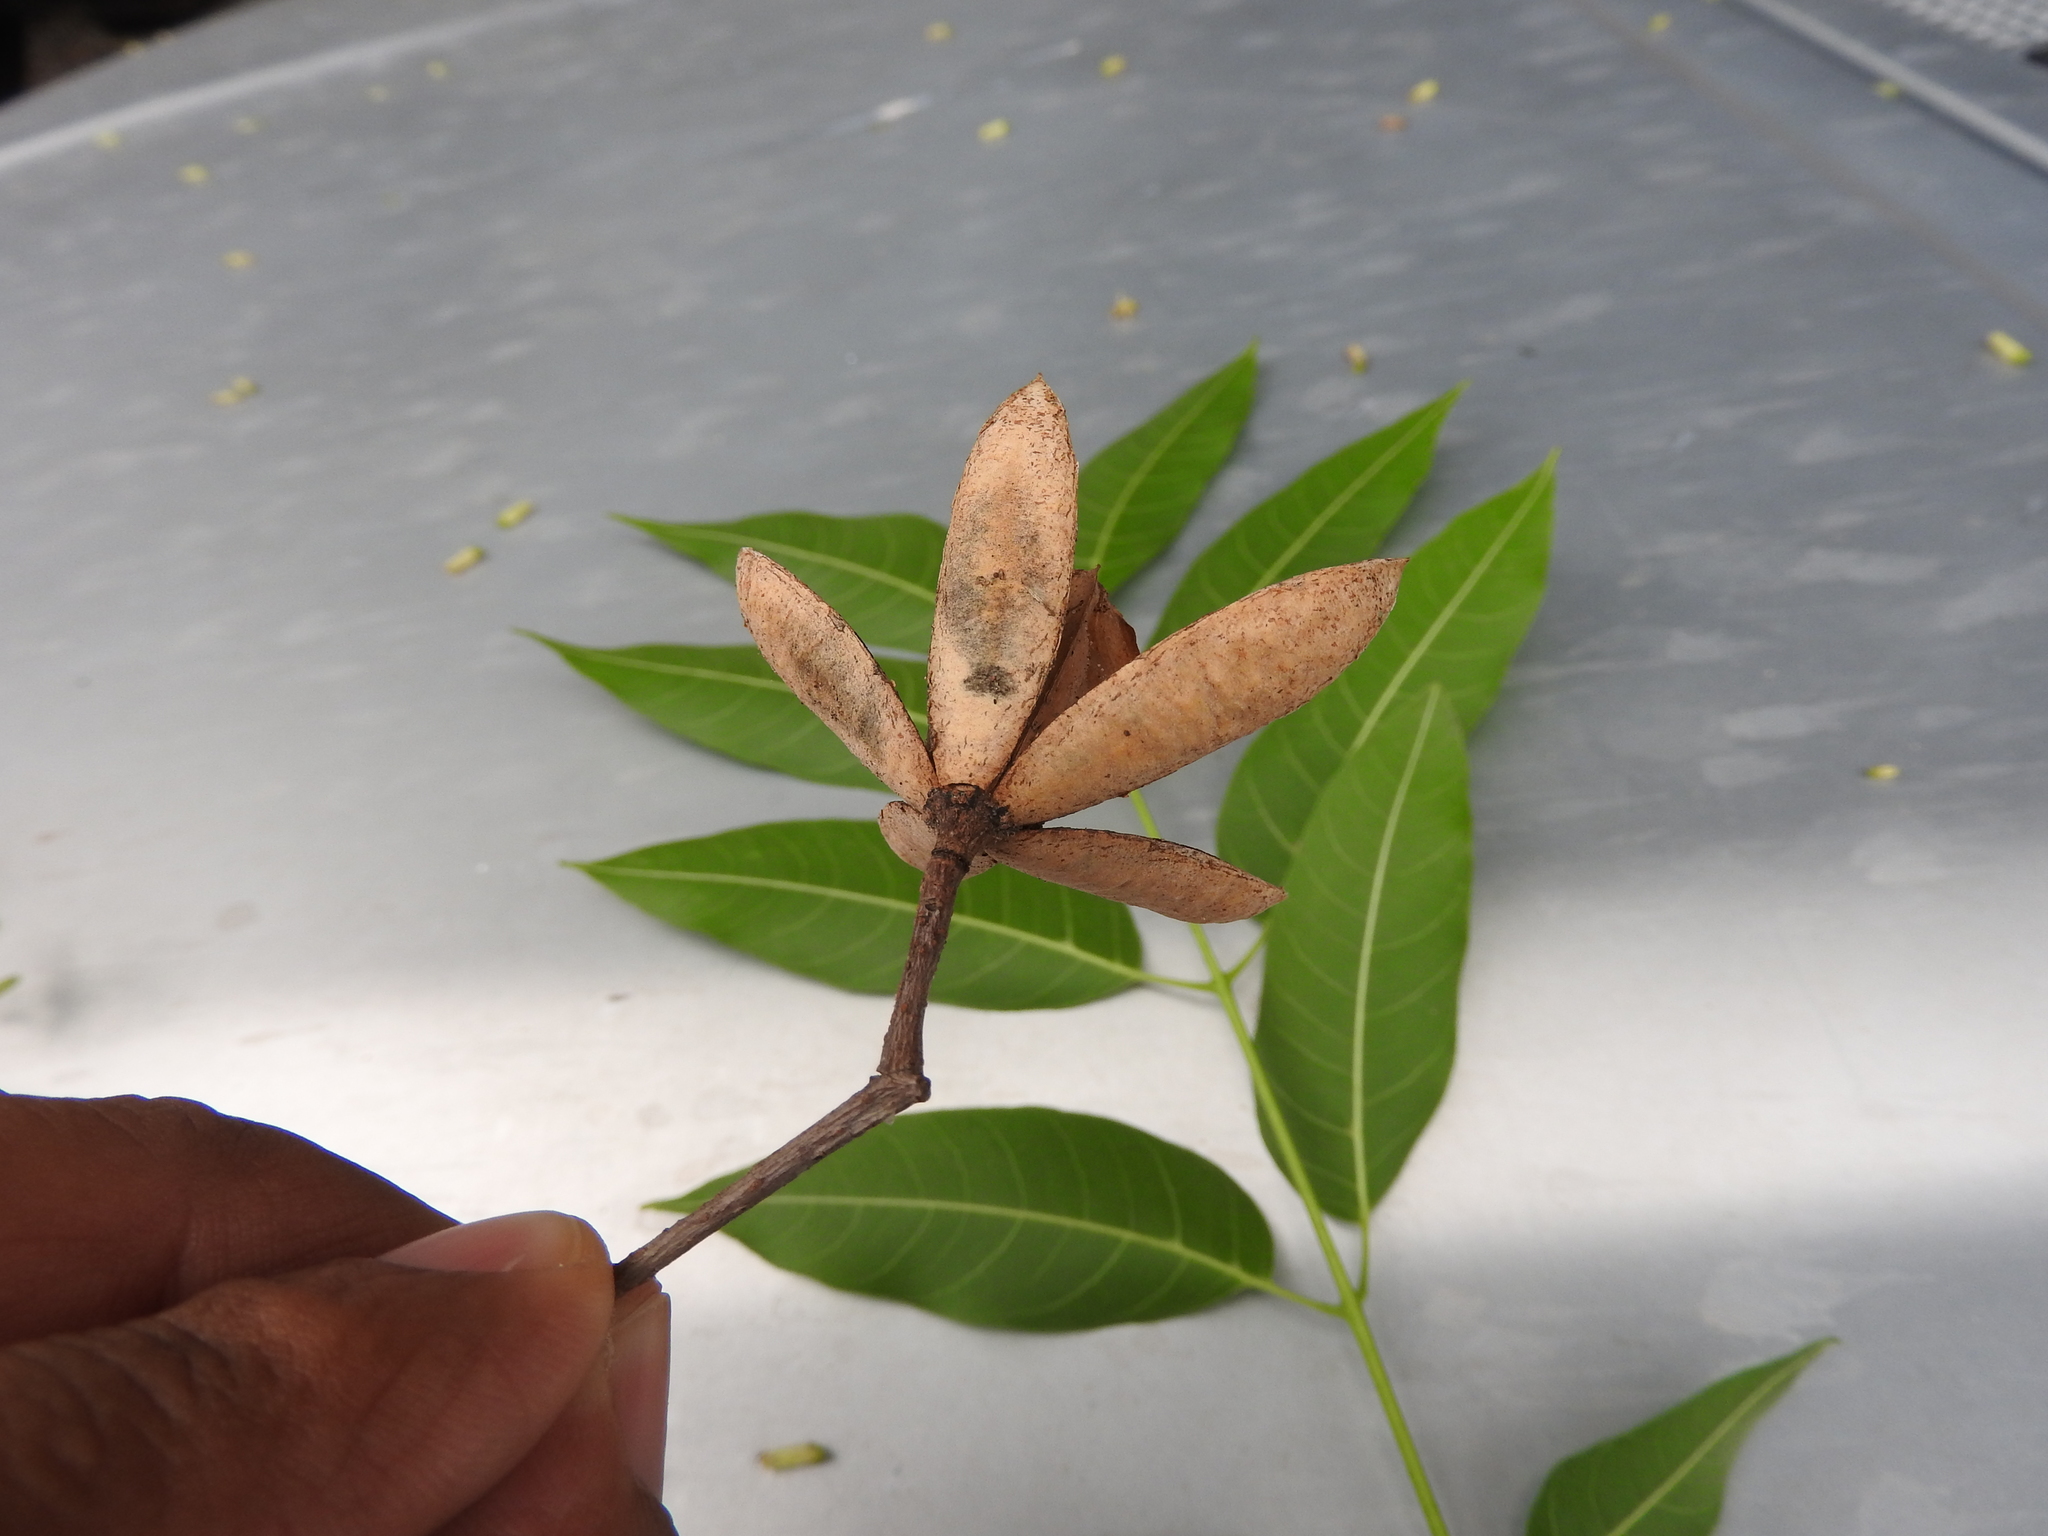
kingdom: Plantae
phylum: Tracheophyta
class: Magnoliopsida
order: Sapindales
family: Meliaceae
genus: Cedrela
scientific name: Cedrela odorata
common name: Red cedar
